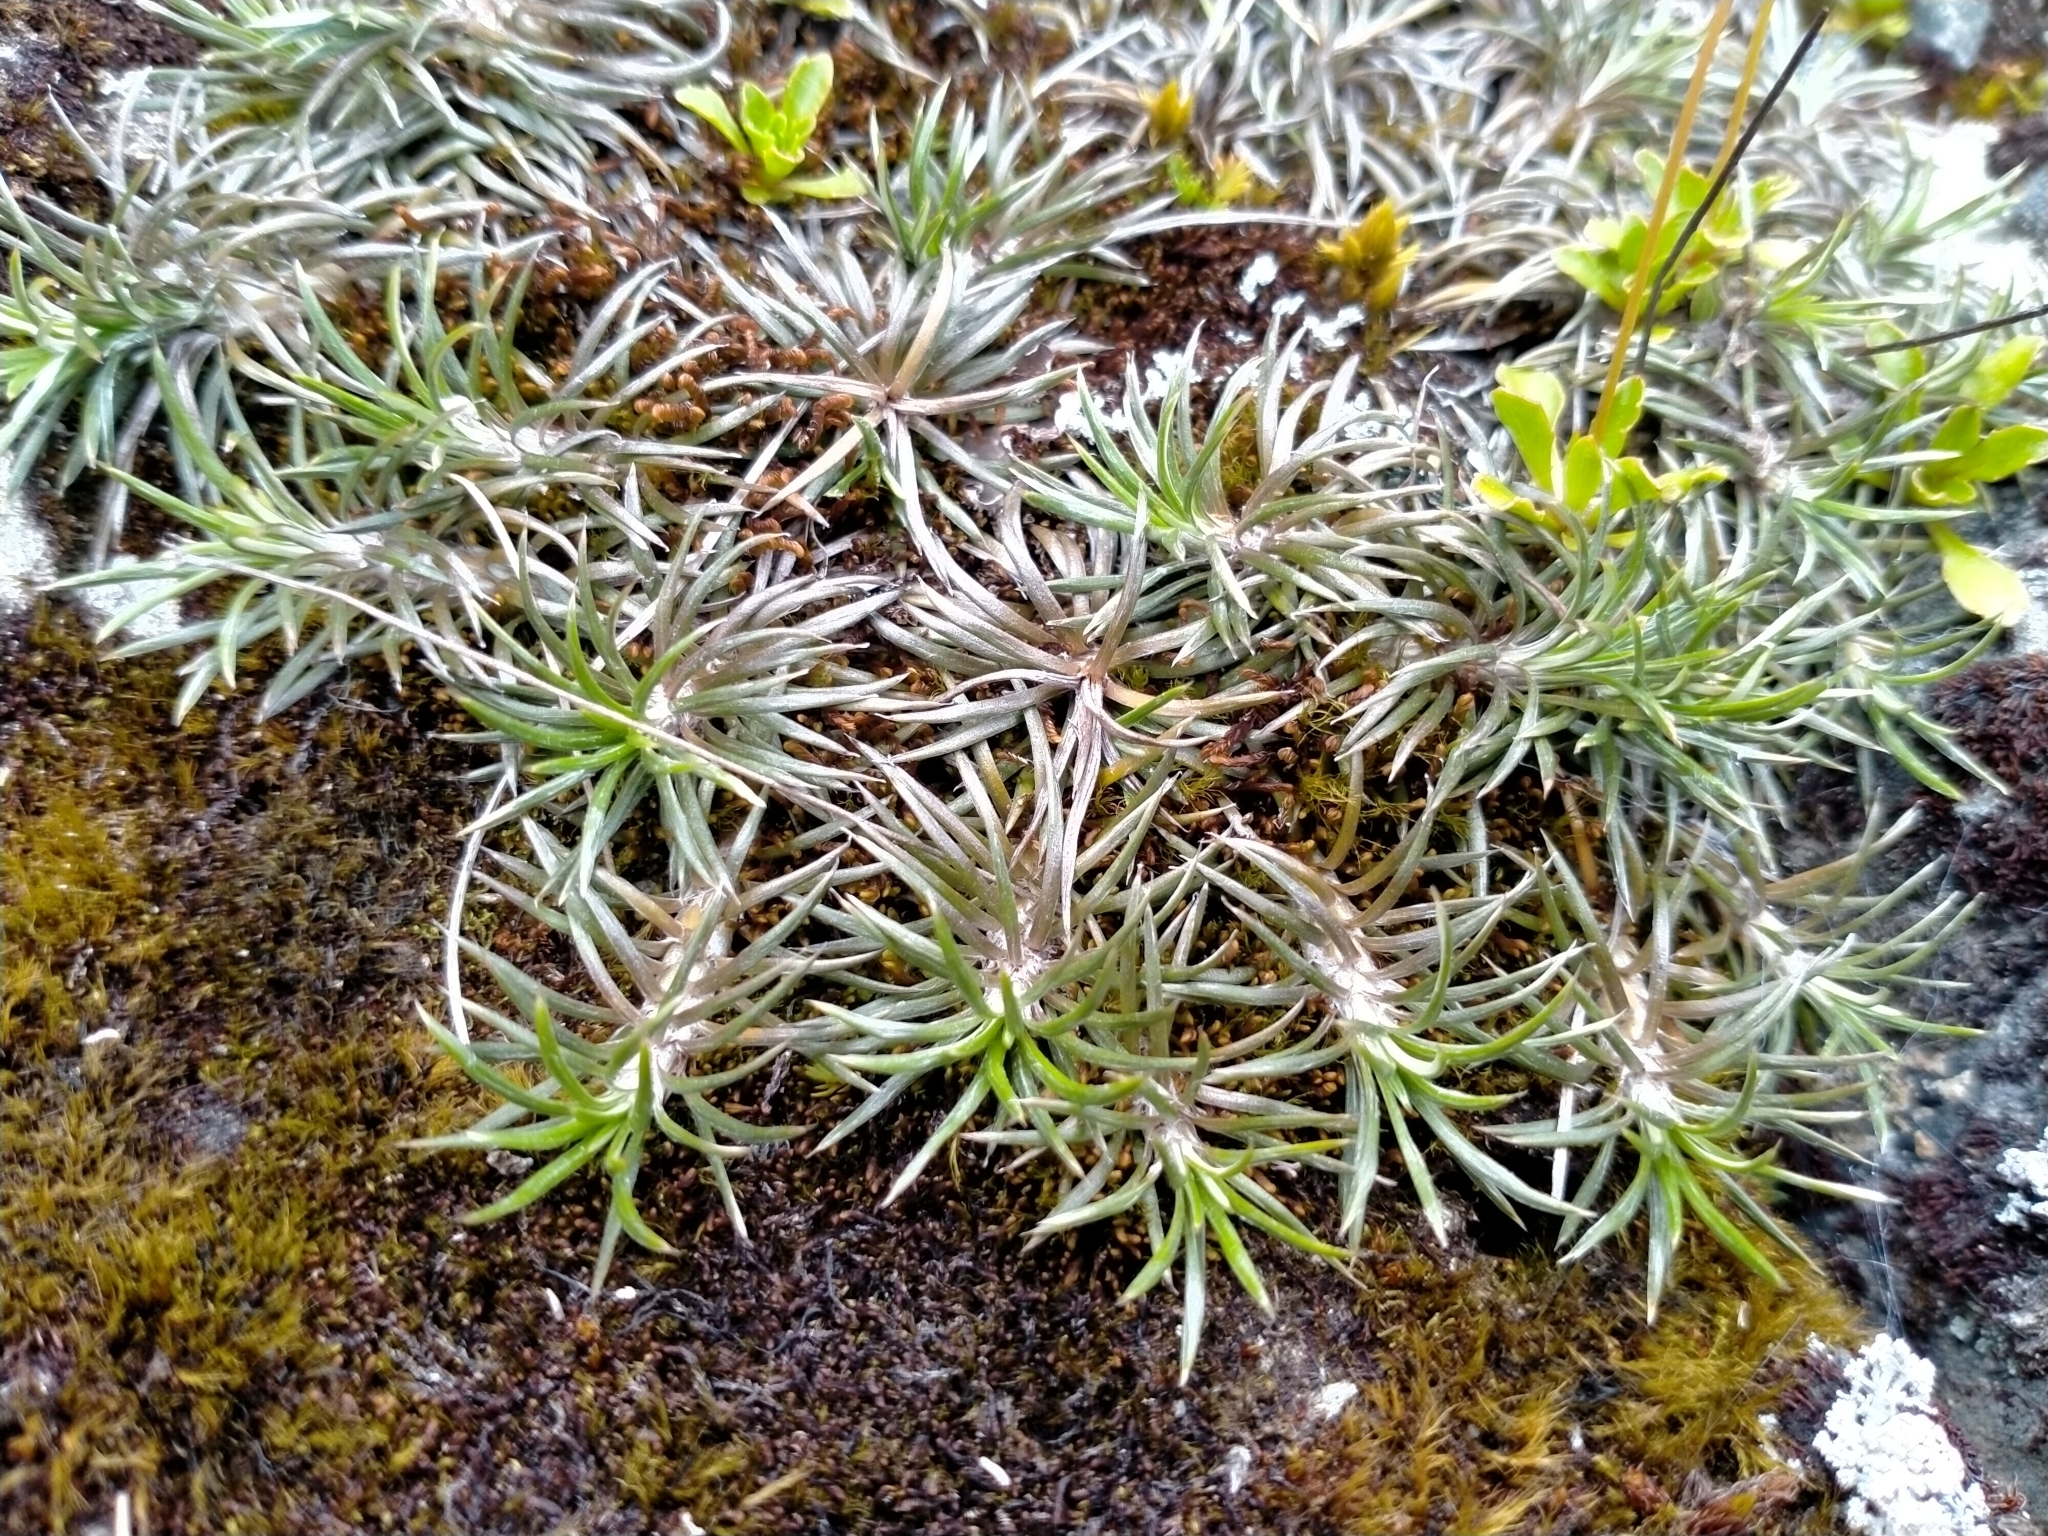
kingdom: Plantae
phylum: Tracheophyta
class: Magnoliopsida
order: Asterales
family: Asteraceae
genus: Celmisia
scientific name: Celmisia laricifolia
